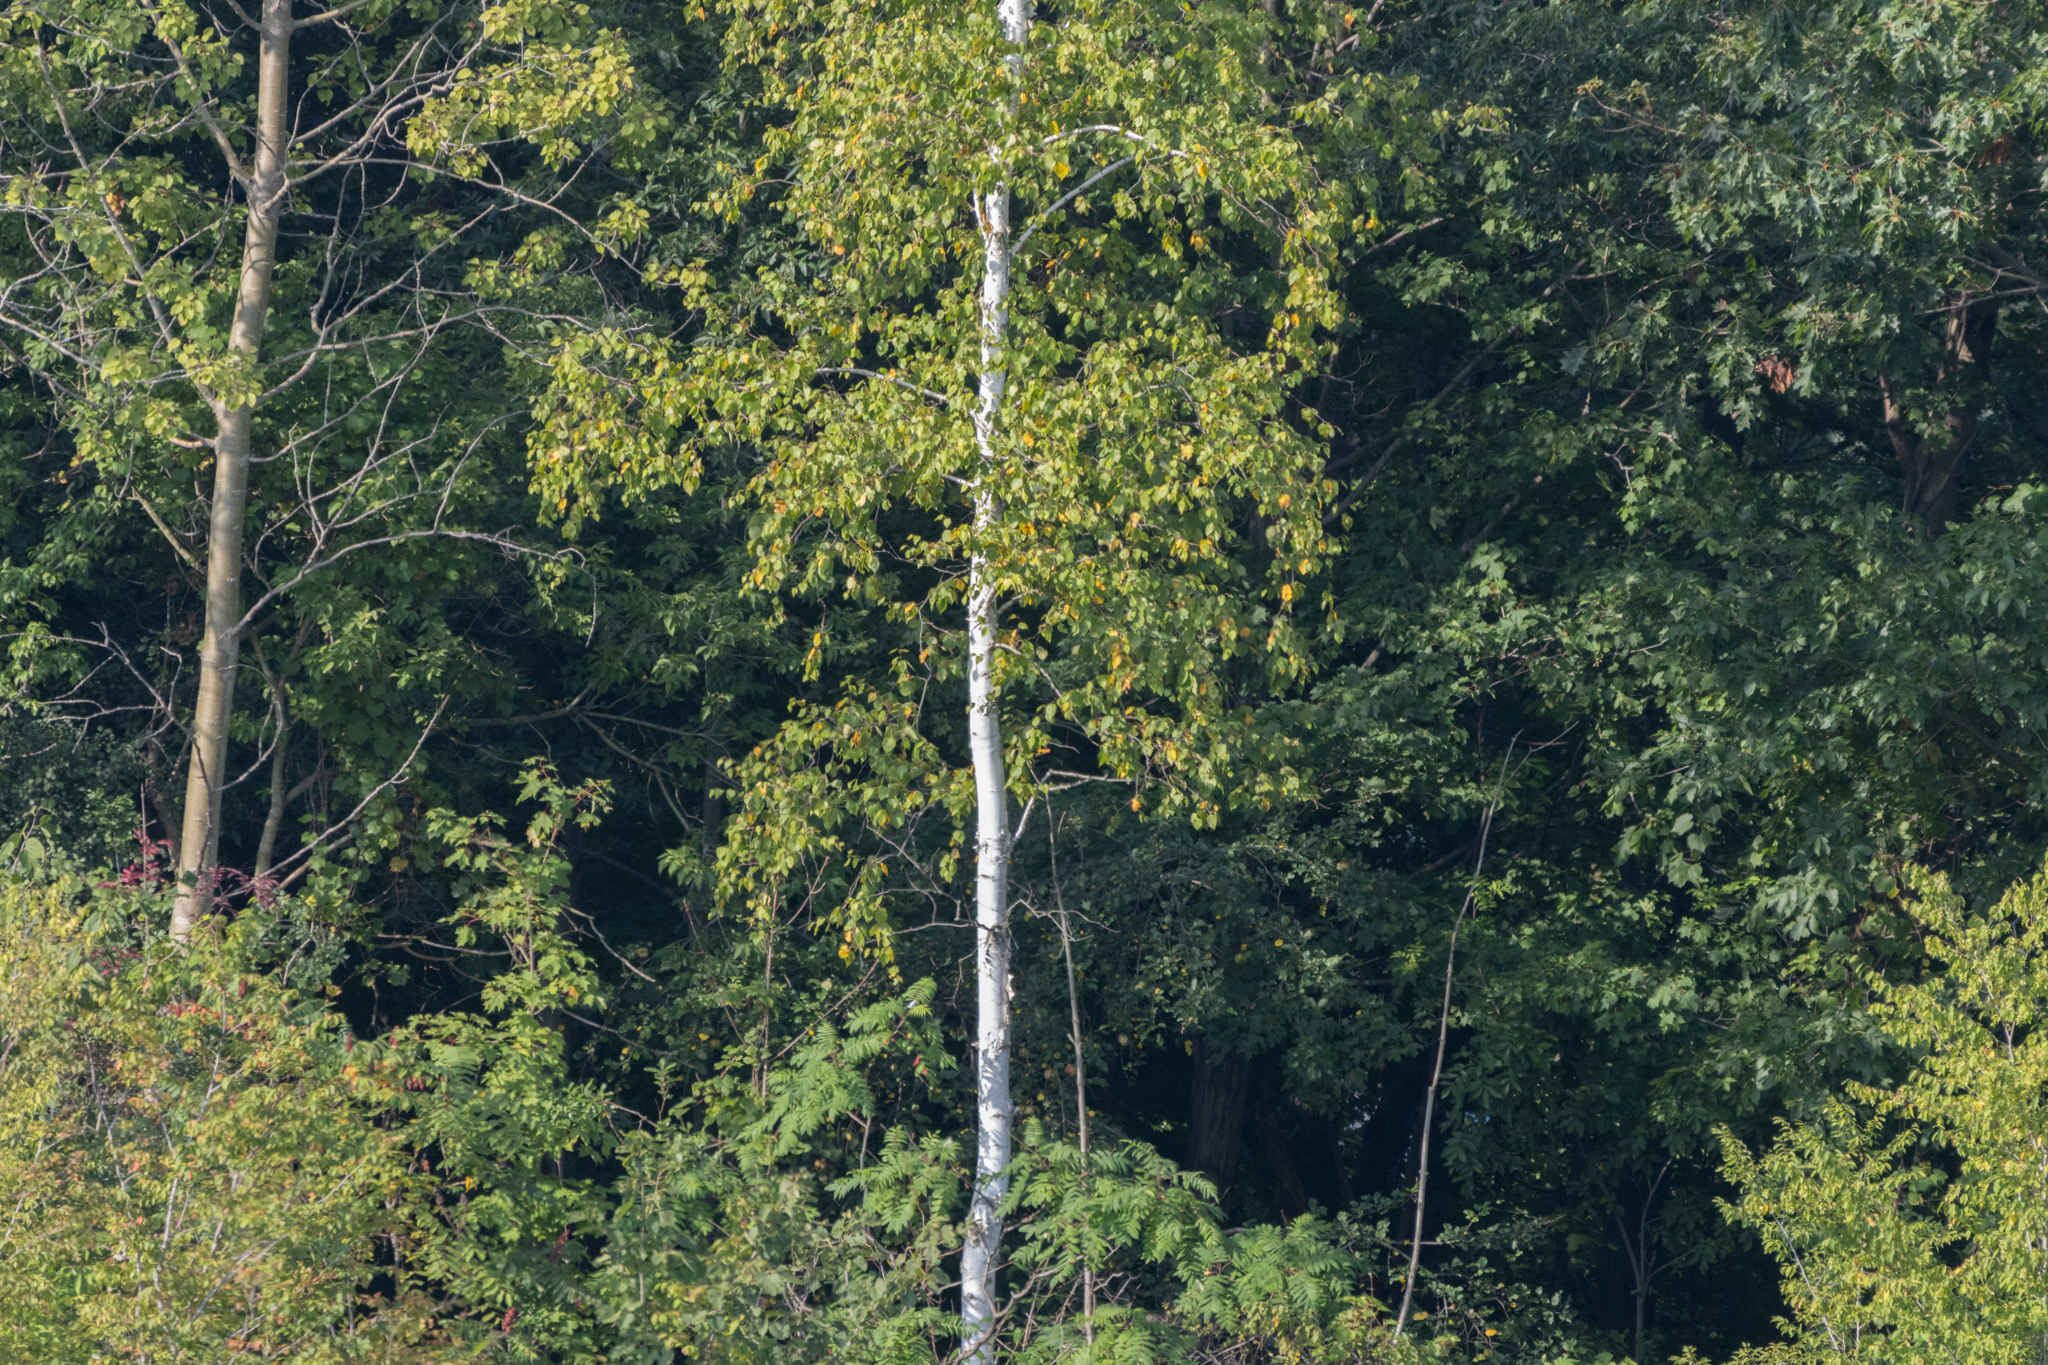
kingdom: Plantae
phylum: Tracheophyta
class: Magnoliopsida
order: Fagales
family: Betulaceae
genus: Betula
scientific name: Betula papyrifera
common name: Paper birch
